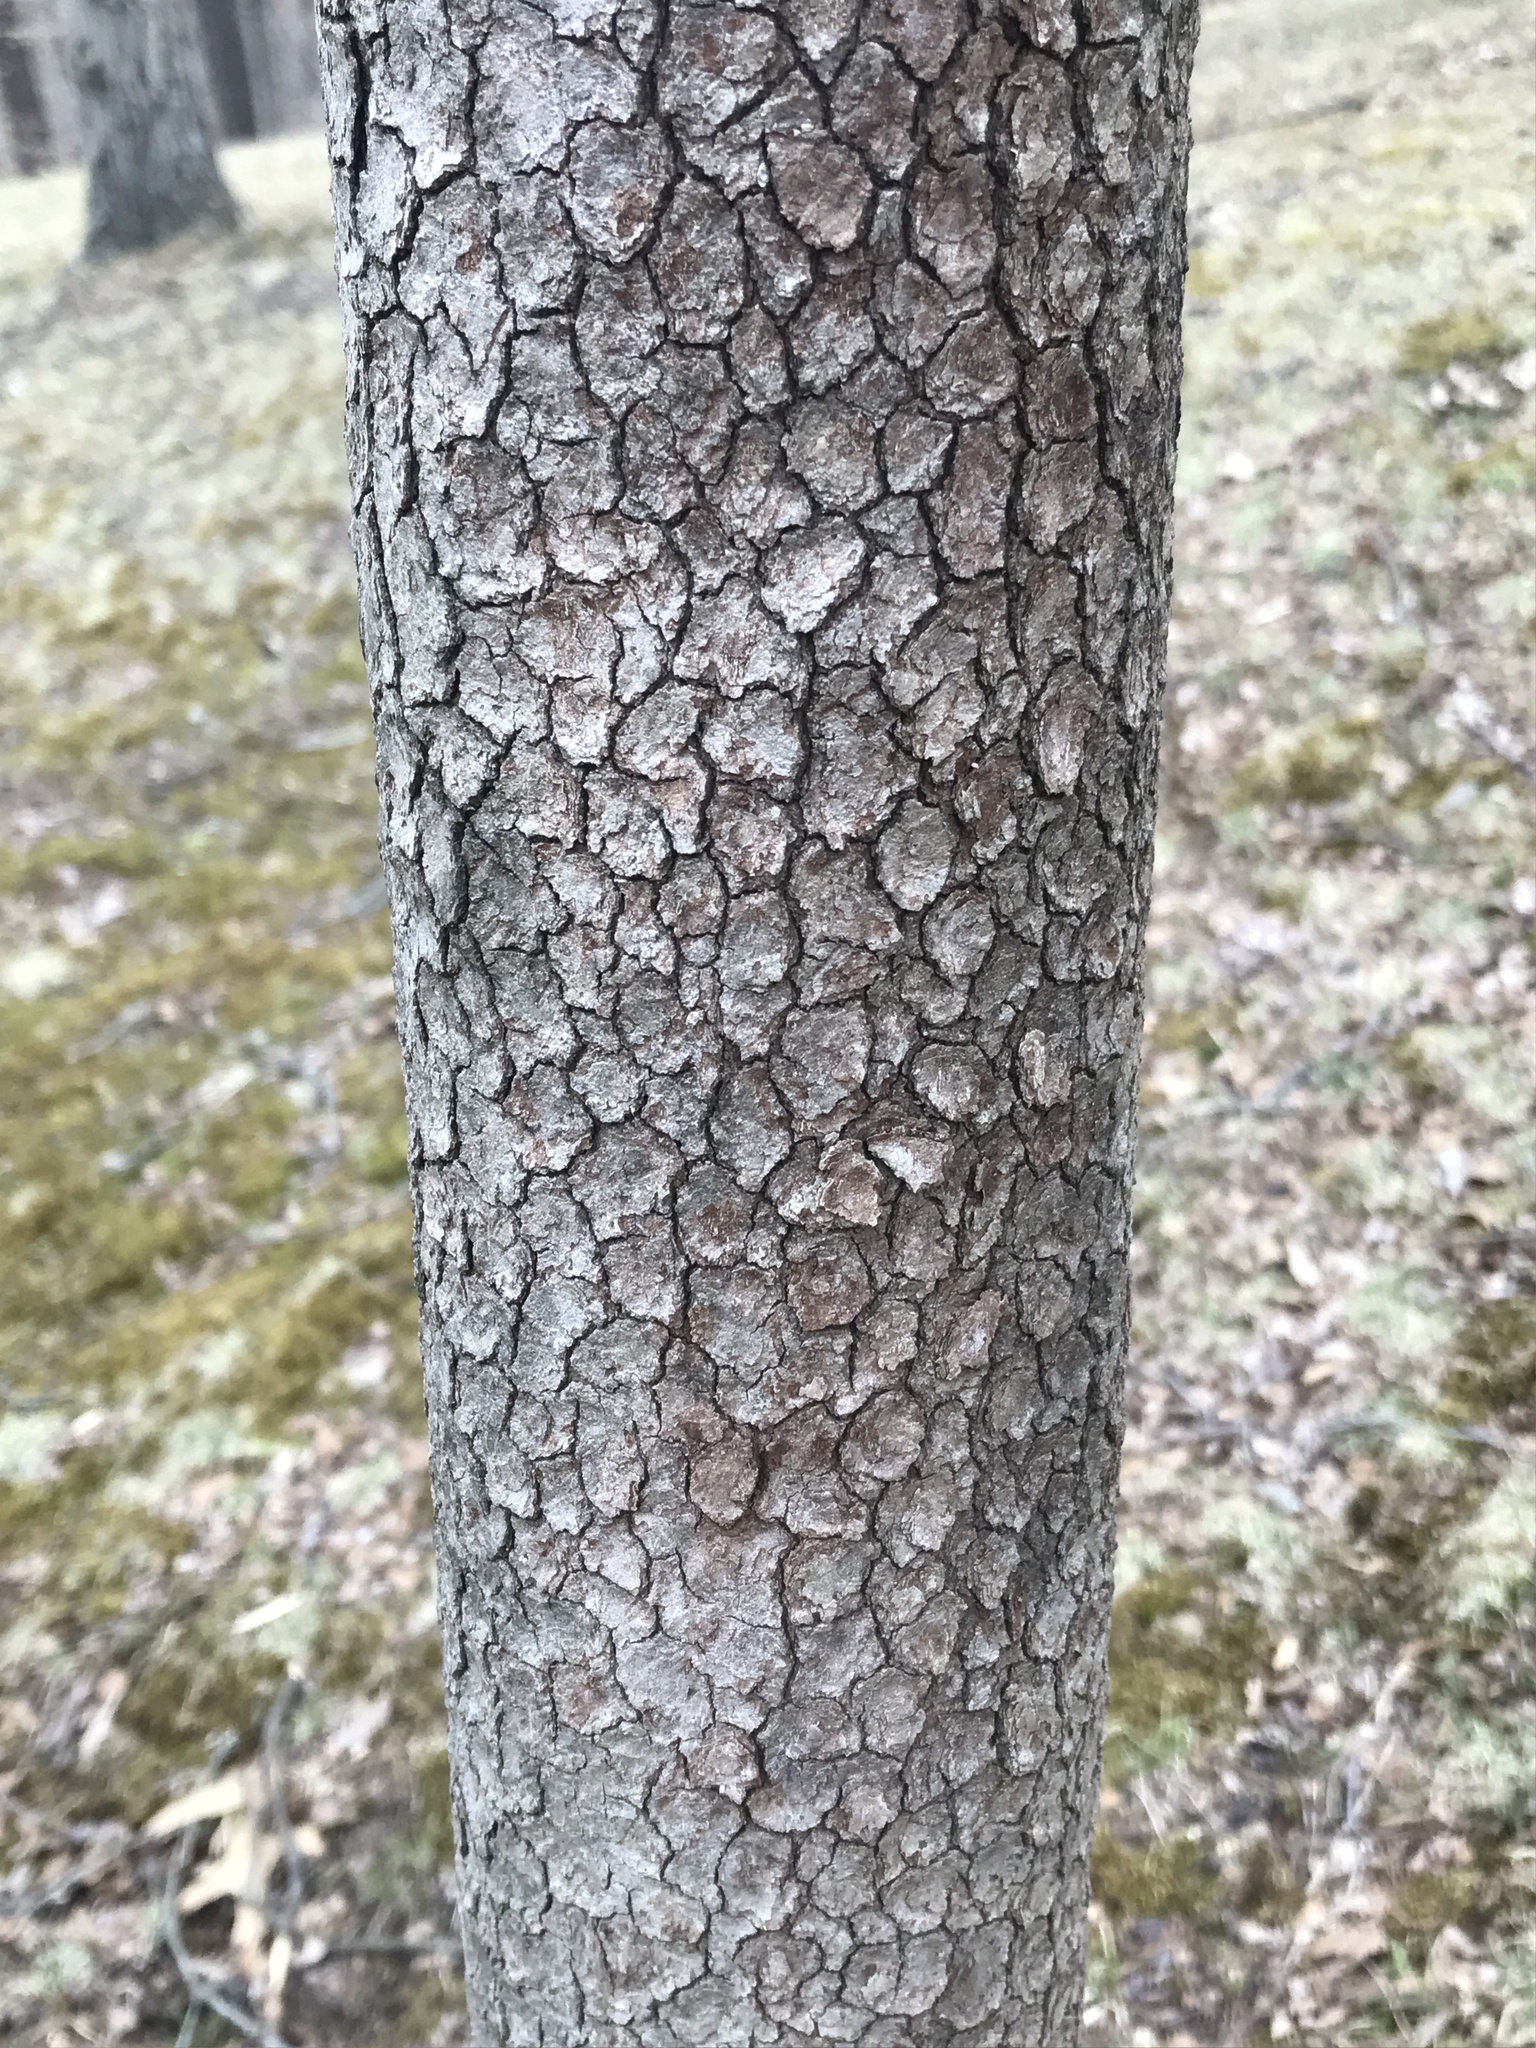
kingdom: Plantae
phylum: Tracheophyta
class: Magnoliopsida
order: Cornales
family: Cornaceae
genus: Cornus
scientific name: Cornus florida
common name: Flowering dogwood
